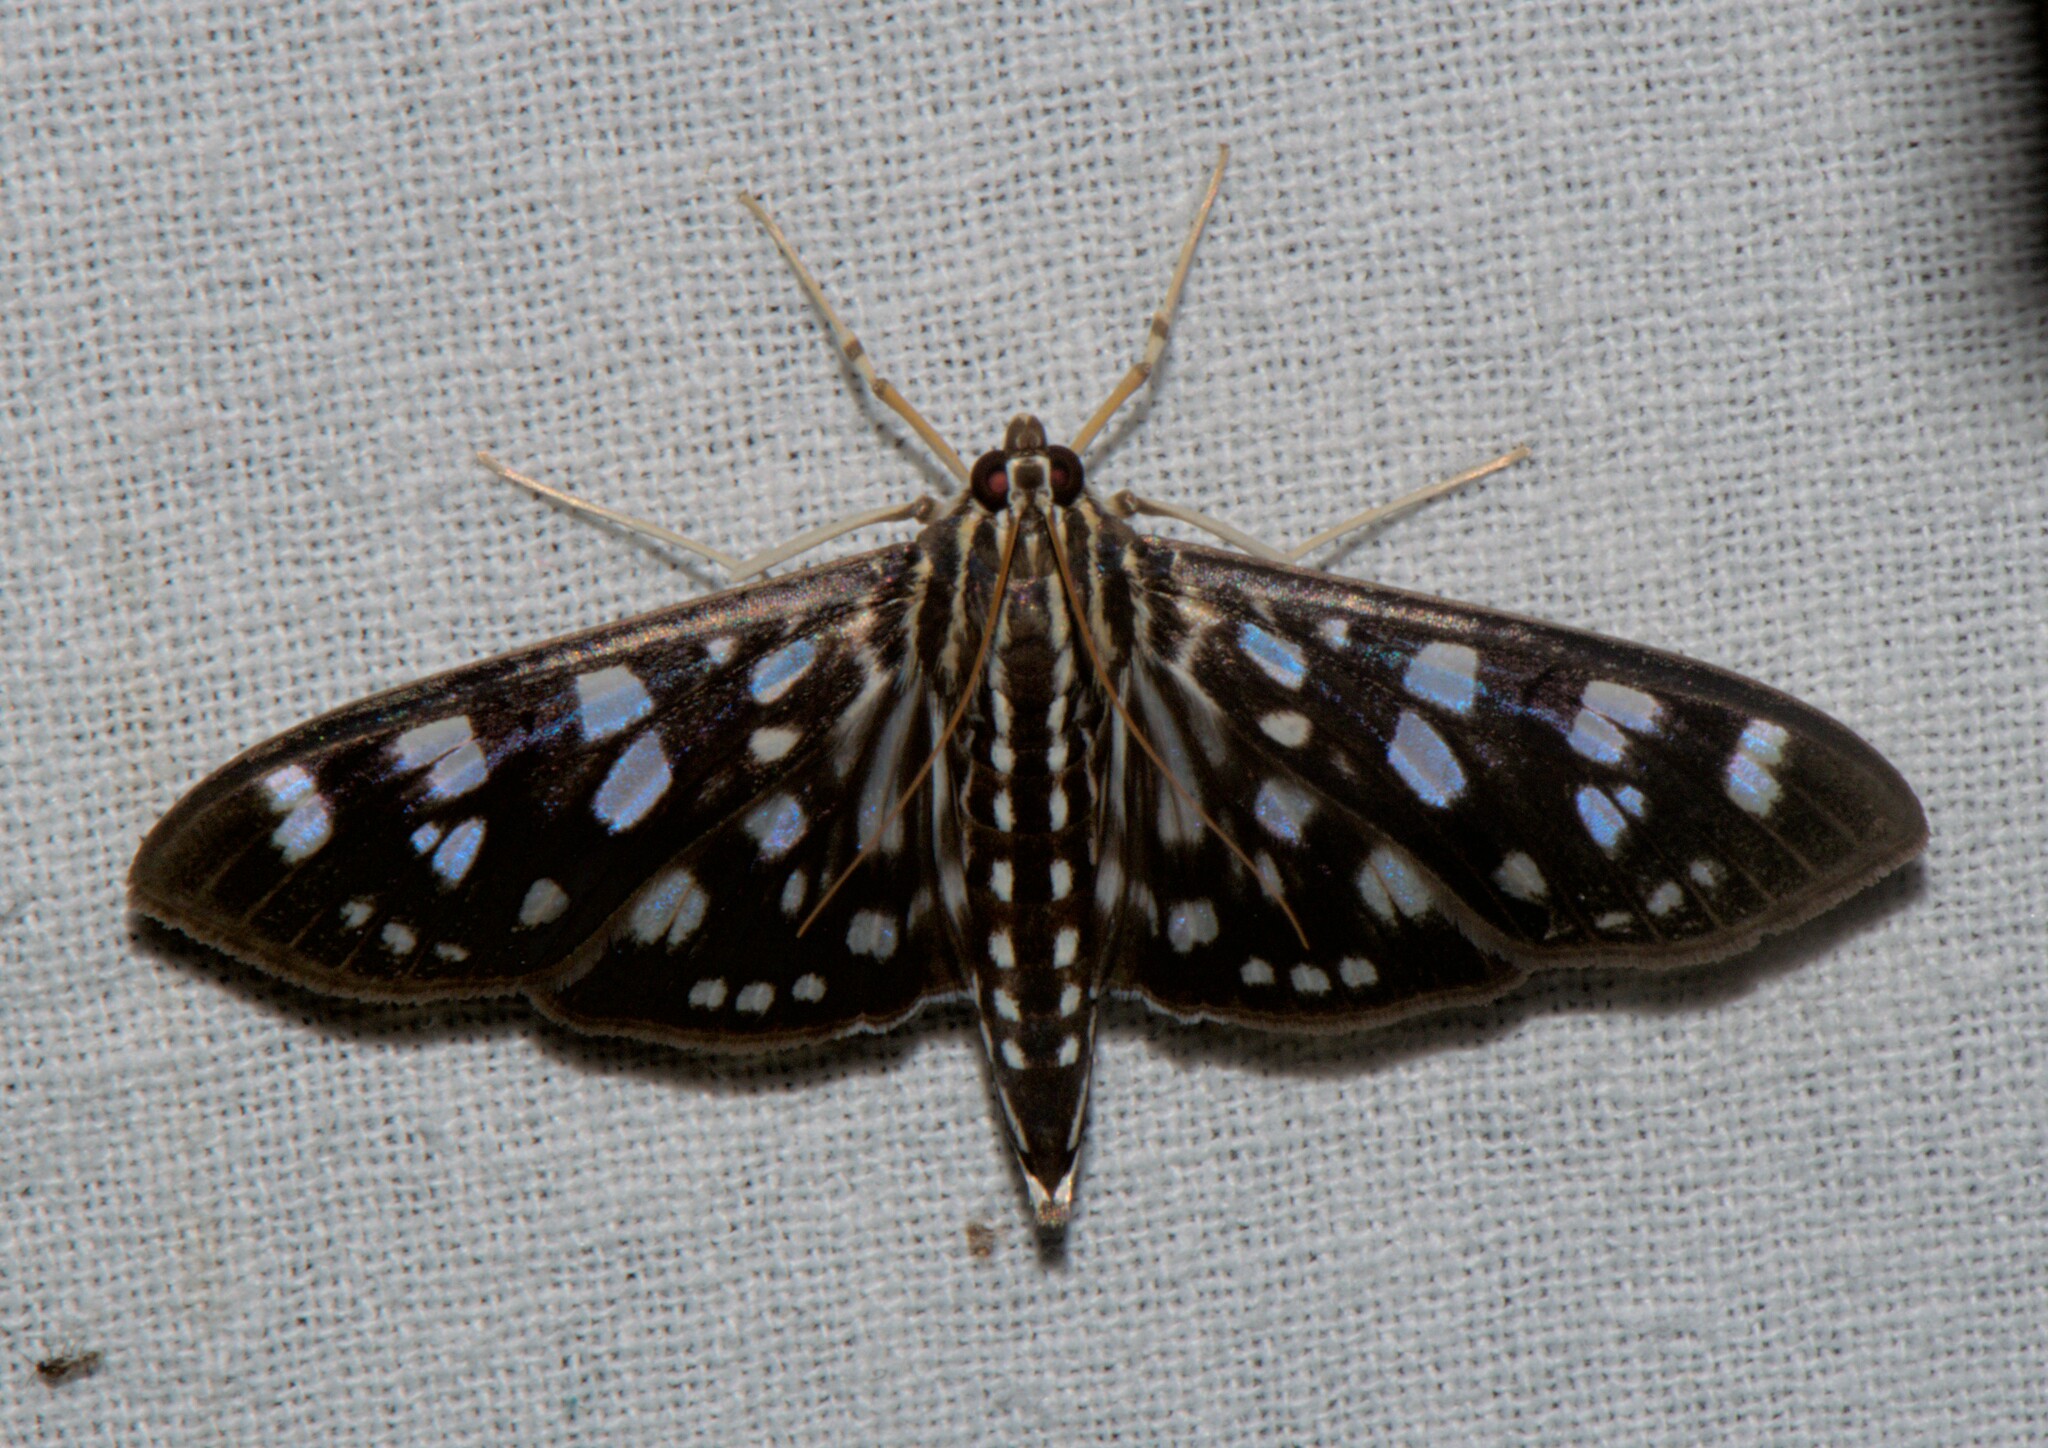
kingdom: Animalia
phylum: Arthropoda
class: Insecta
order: Lepidoptera
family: Crambidae
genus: Pygospila
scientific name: Pygospila tyres
